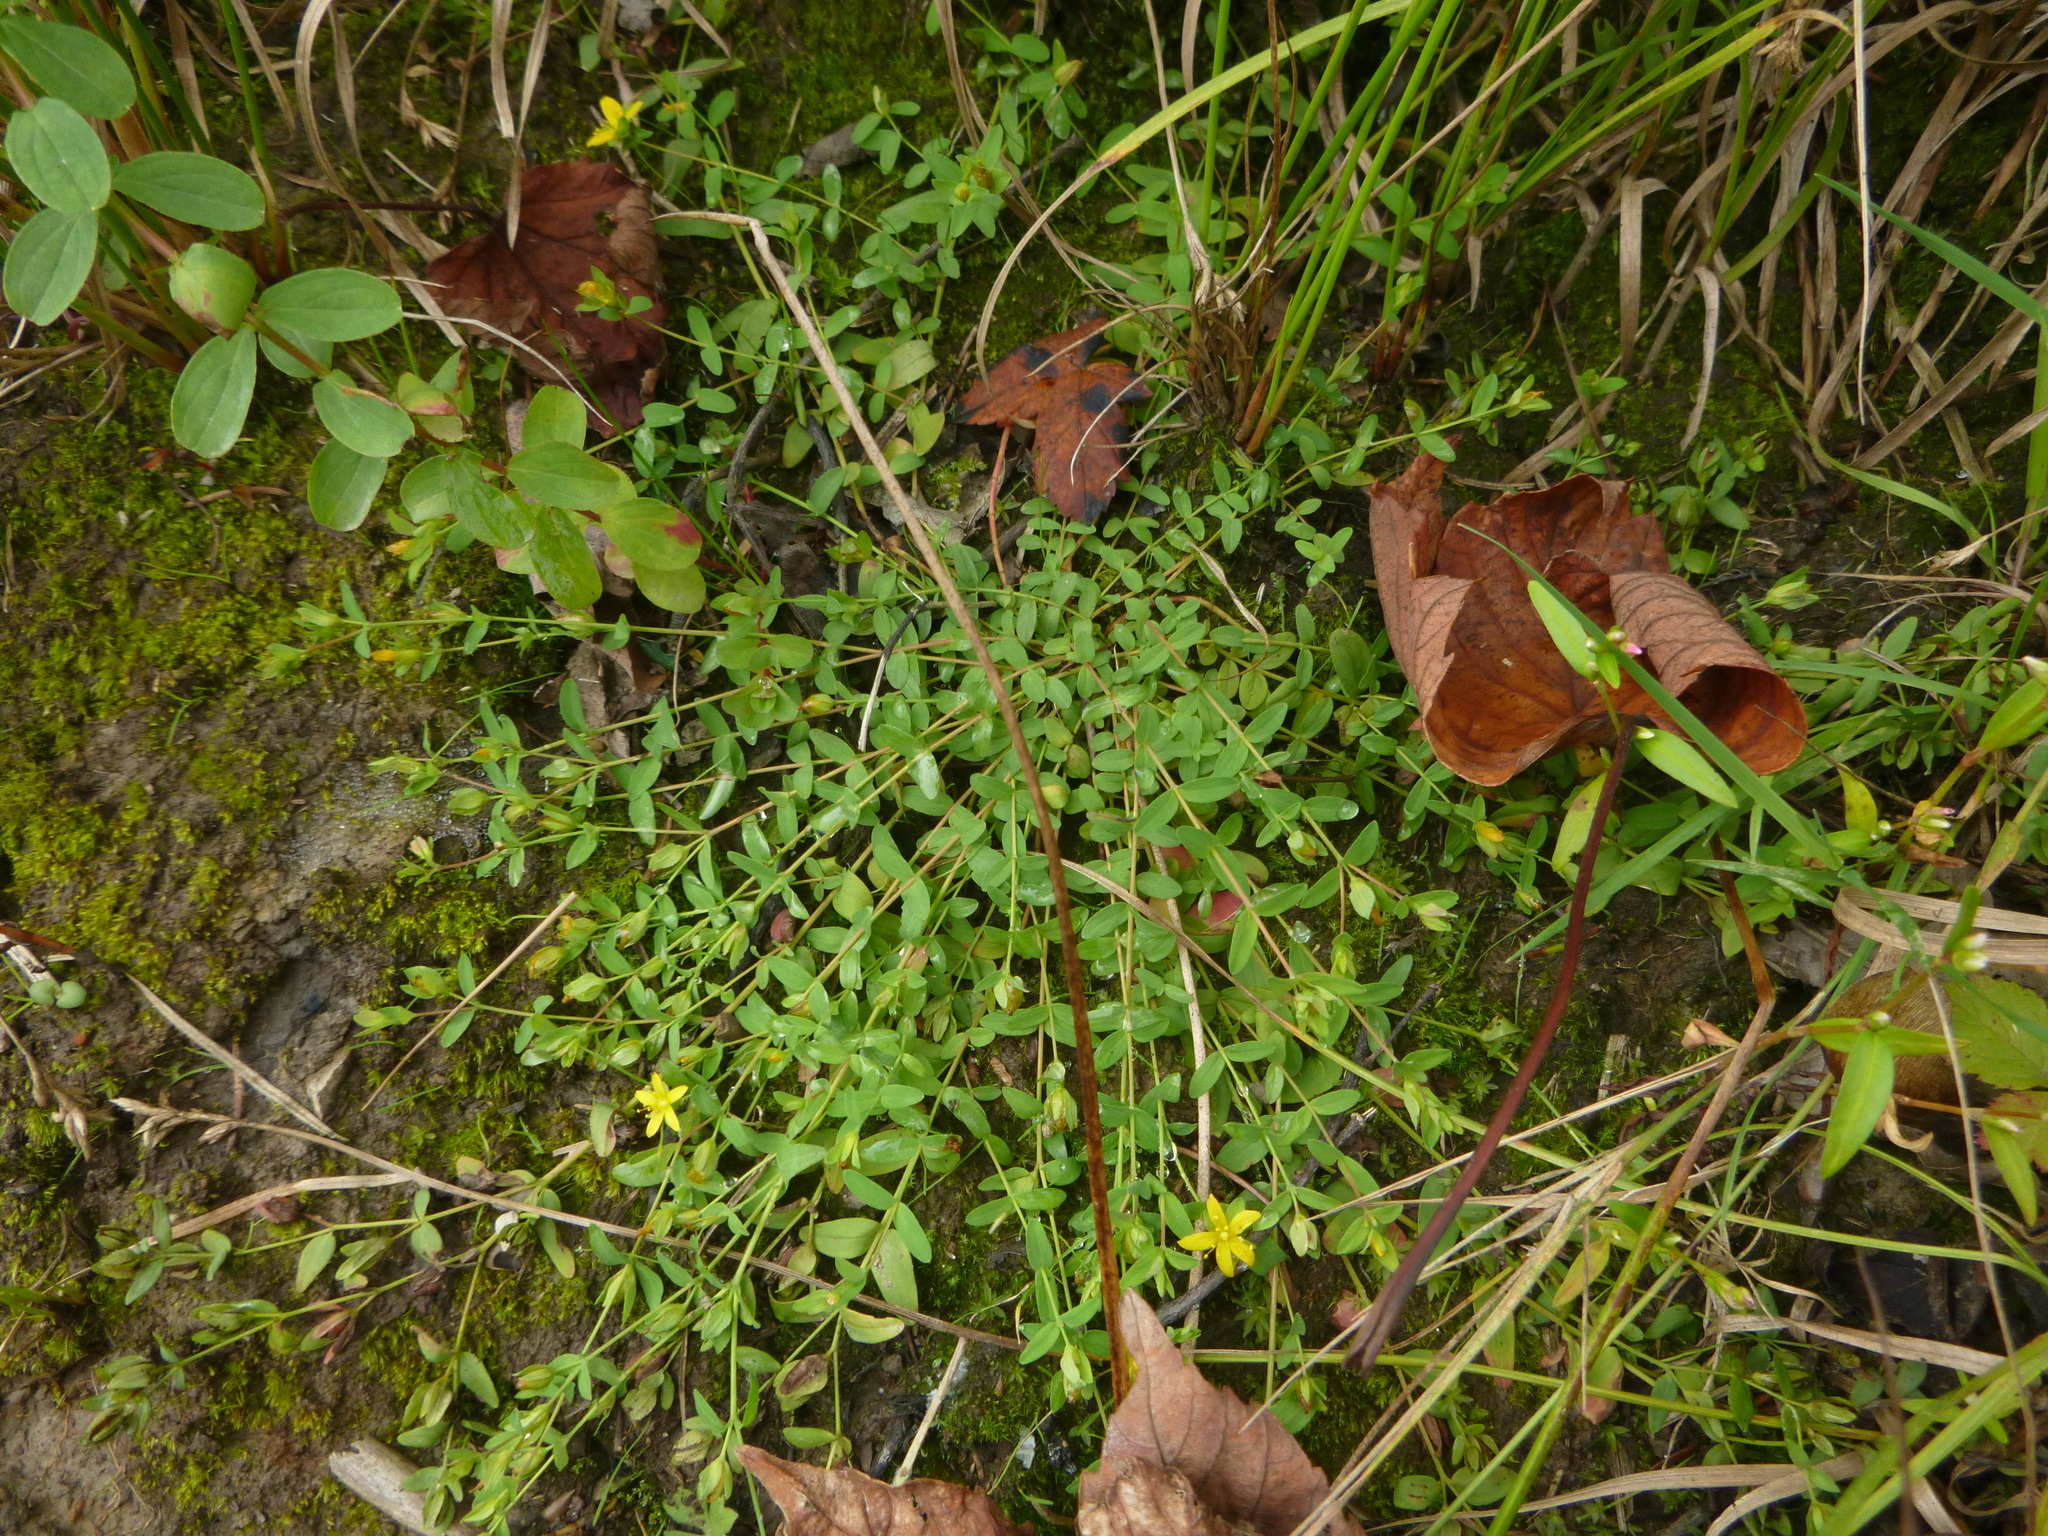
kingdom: Plantae
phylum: Tracheophyta
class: Magnoliopsida
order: Malpighiales
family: Hypericaceae
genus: Hypericum
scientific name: Hypericum humifusum
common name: Trailing st. john's-wort
